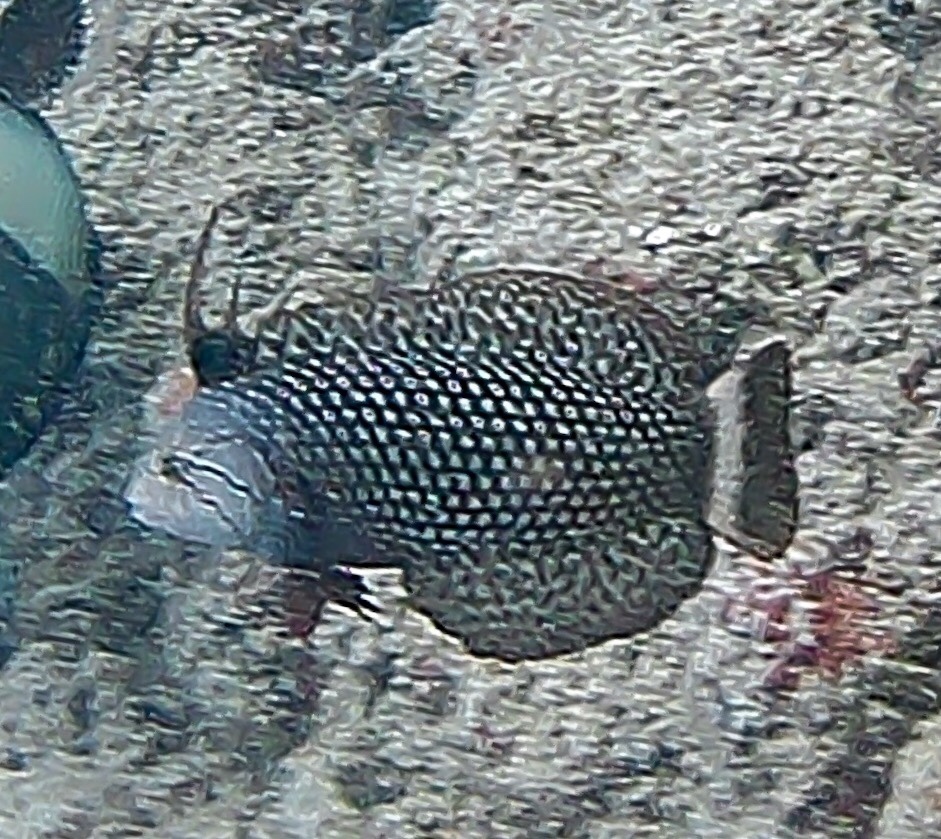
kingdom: Animalia
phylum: Chordata
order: Perciformes
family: Labridae
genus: Novaculichthys
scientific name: Novaculichthys taeniourus
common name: Rockmover wrasse
